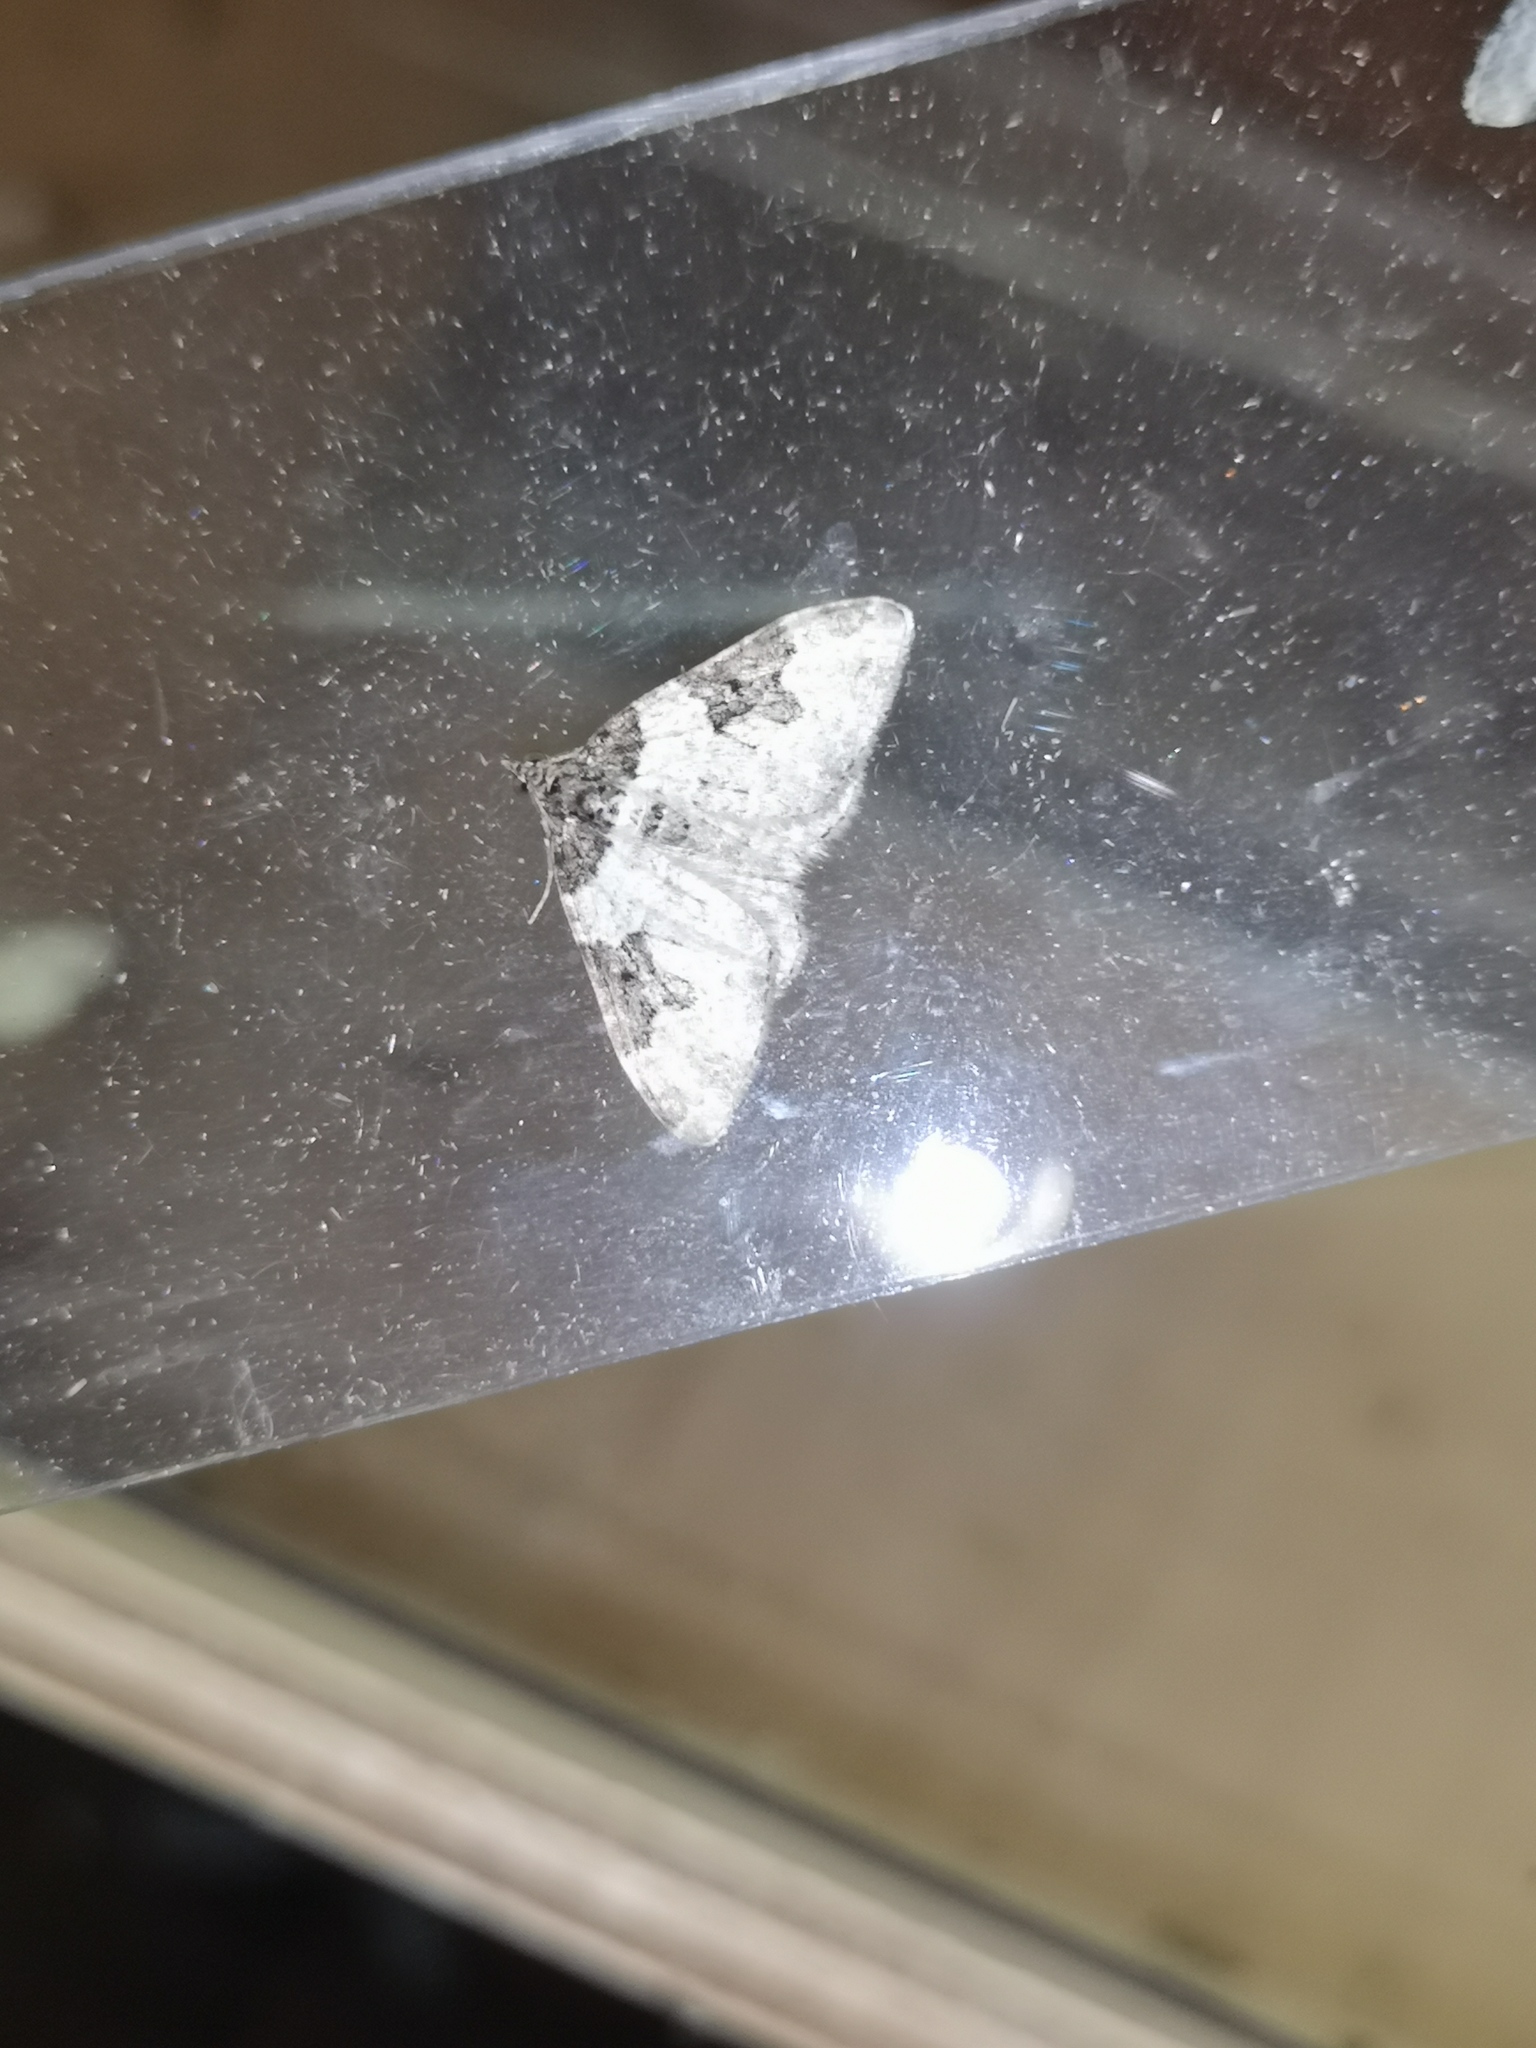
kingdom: Animalia
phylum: Arthropoda
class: Insecta
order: Lepidoptera
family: Geometridae
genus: Xanthorhoe
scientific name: Xanthorhoe fluctuata
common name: Garden carpet
